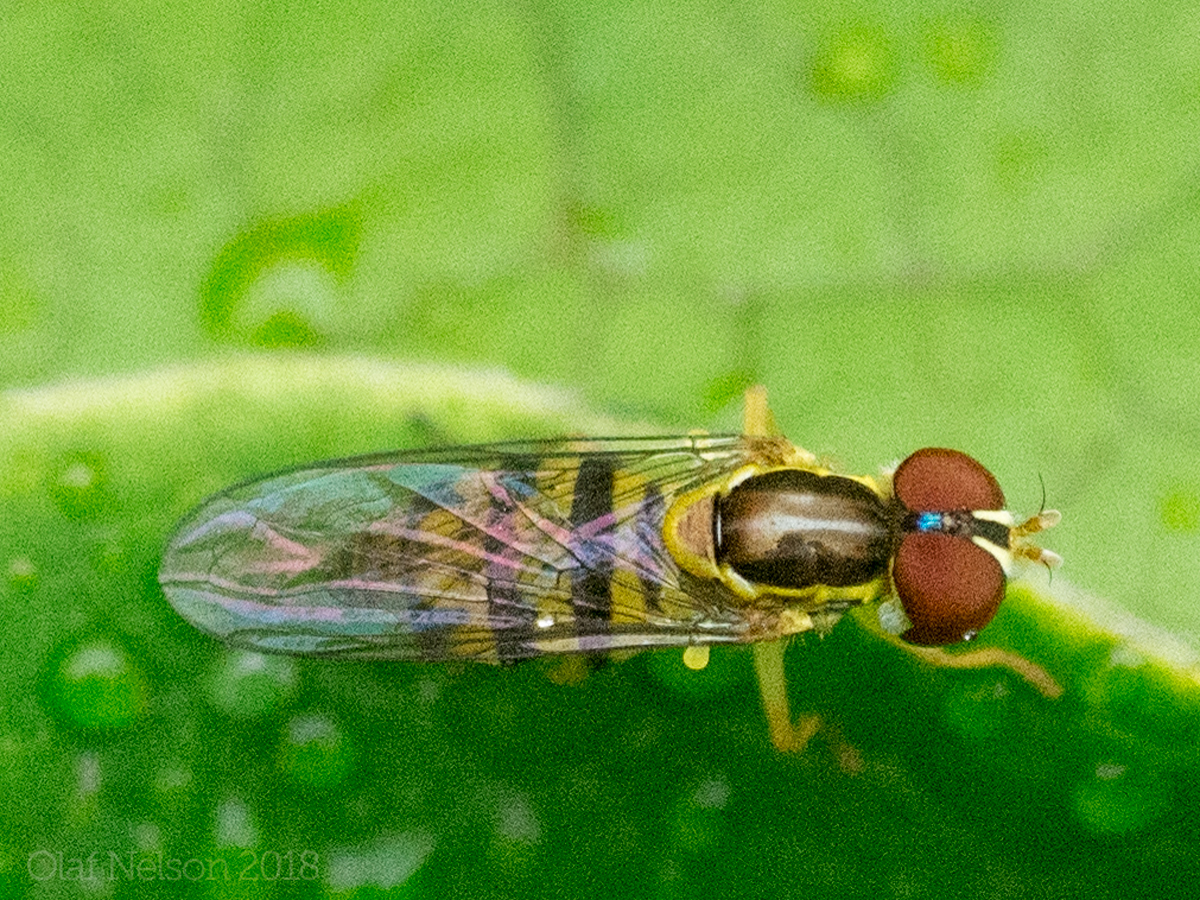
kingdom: Animalia
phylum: Arthropoda
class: Insecta
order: Diptera
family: Syrphidae
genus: Toxomerus
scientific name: Toxomerus geminatus
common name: Eastern calligrapher
